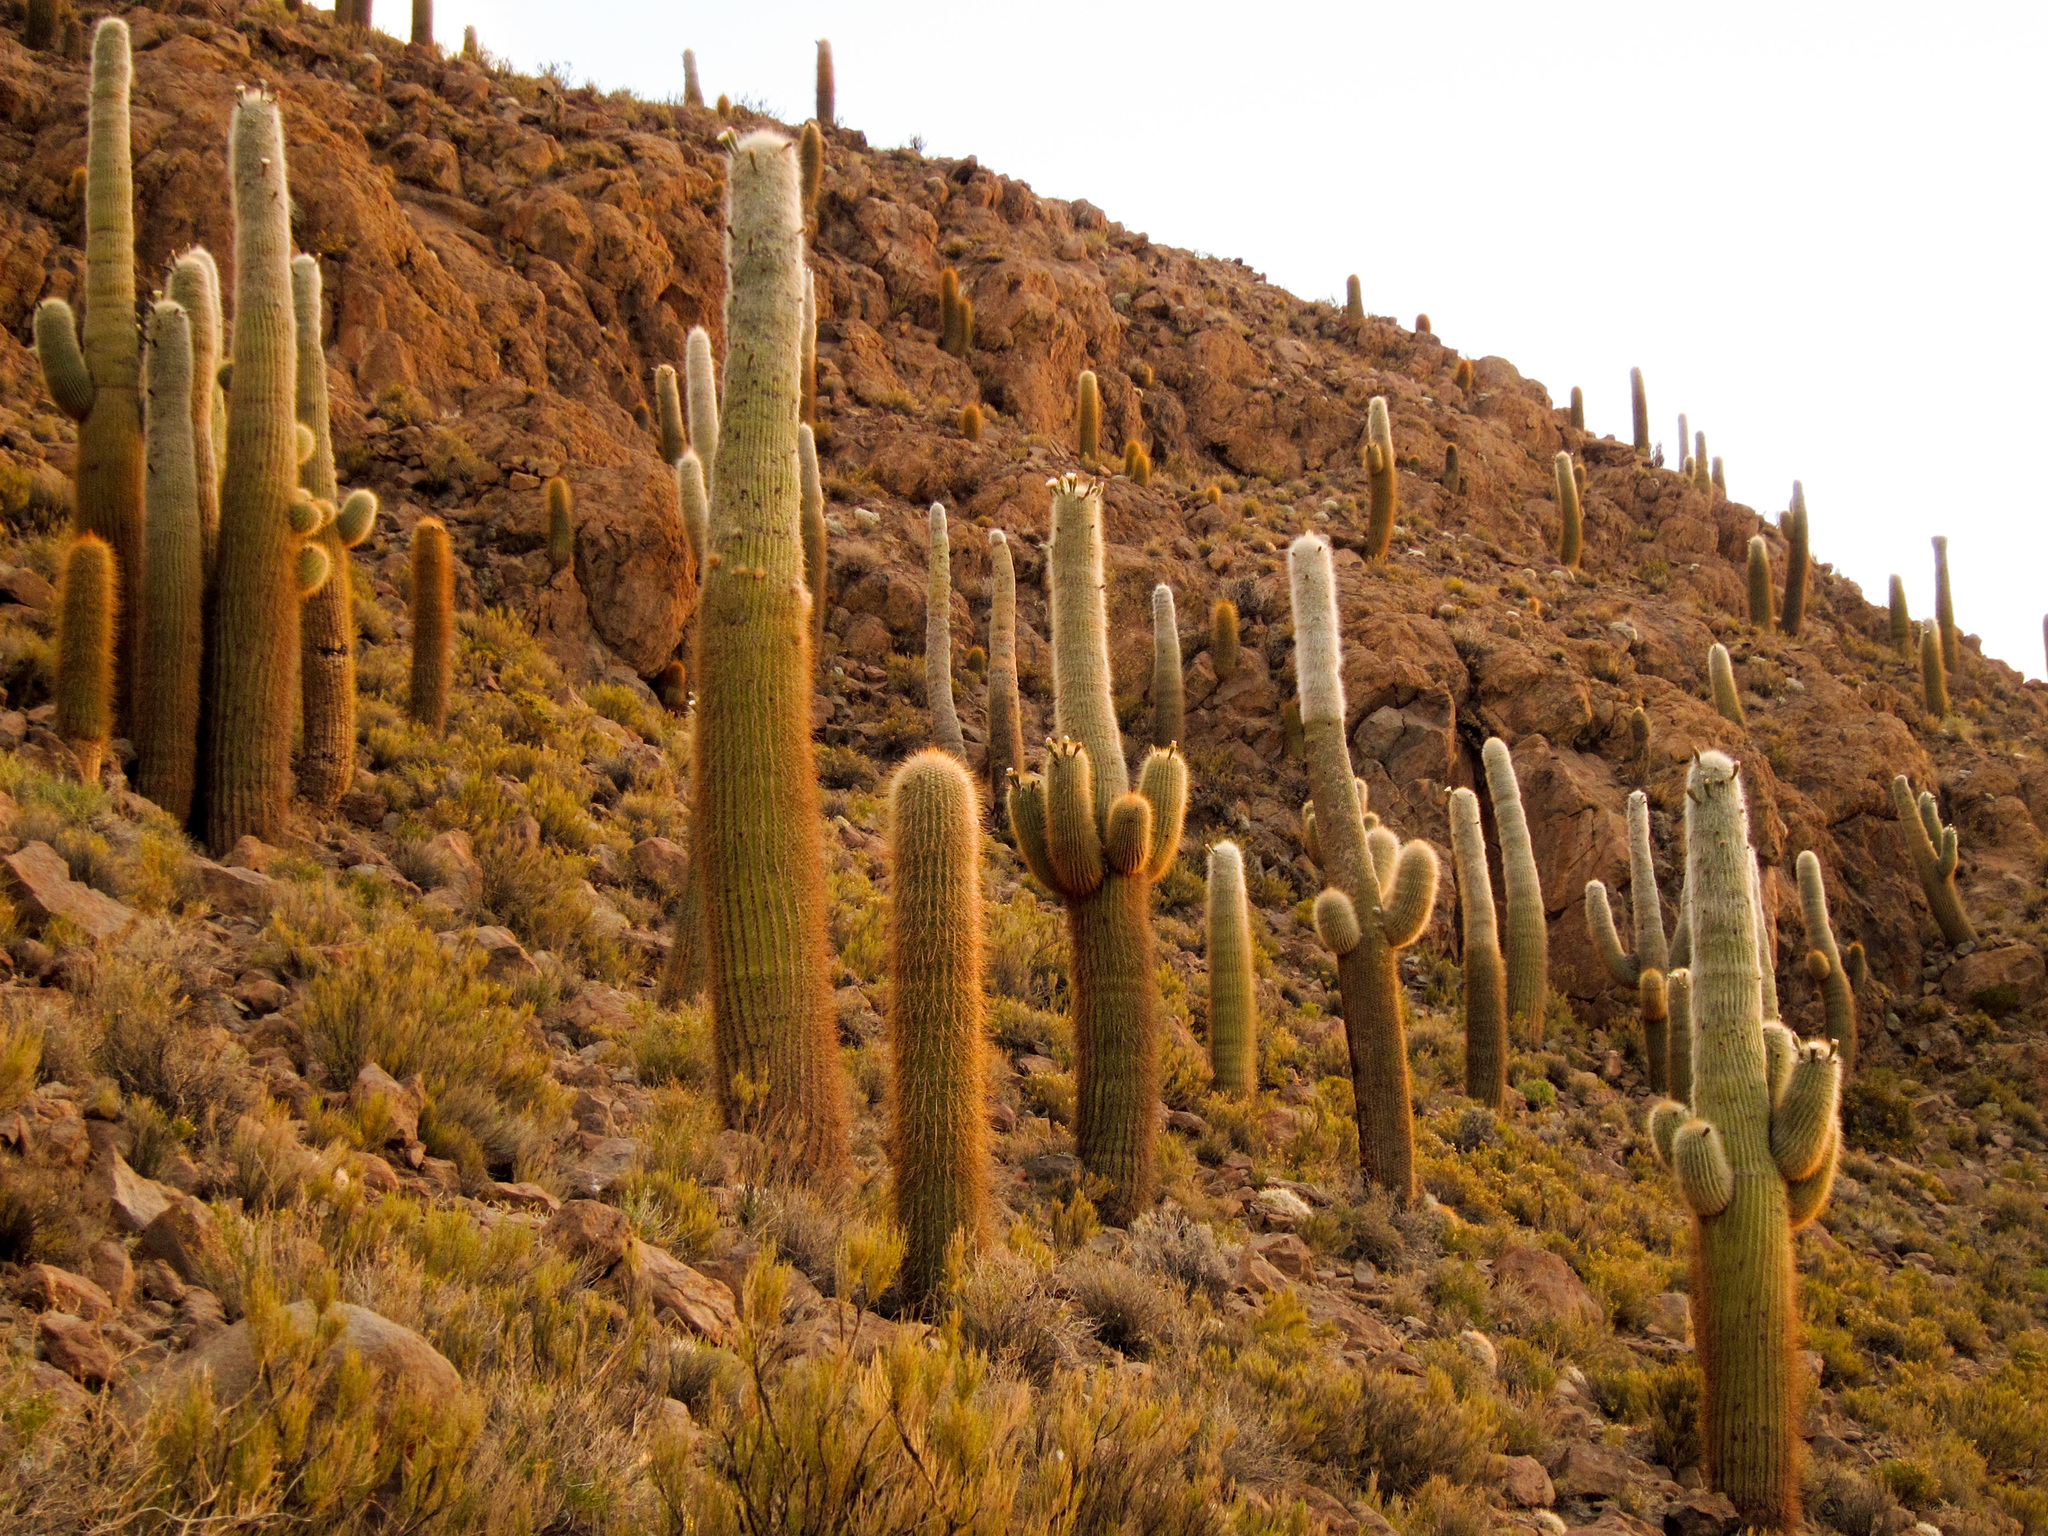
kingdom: Plantae
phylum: Tracheophyta
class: Magnoliopsida
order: Caryophyllales
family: Cactaceae
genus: Leucostele
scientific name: Leucostele atacamensis
